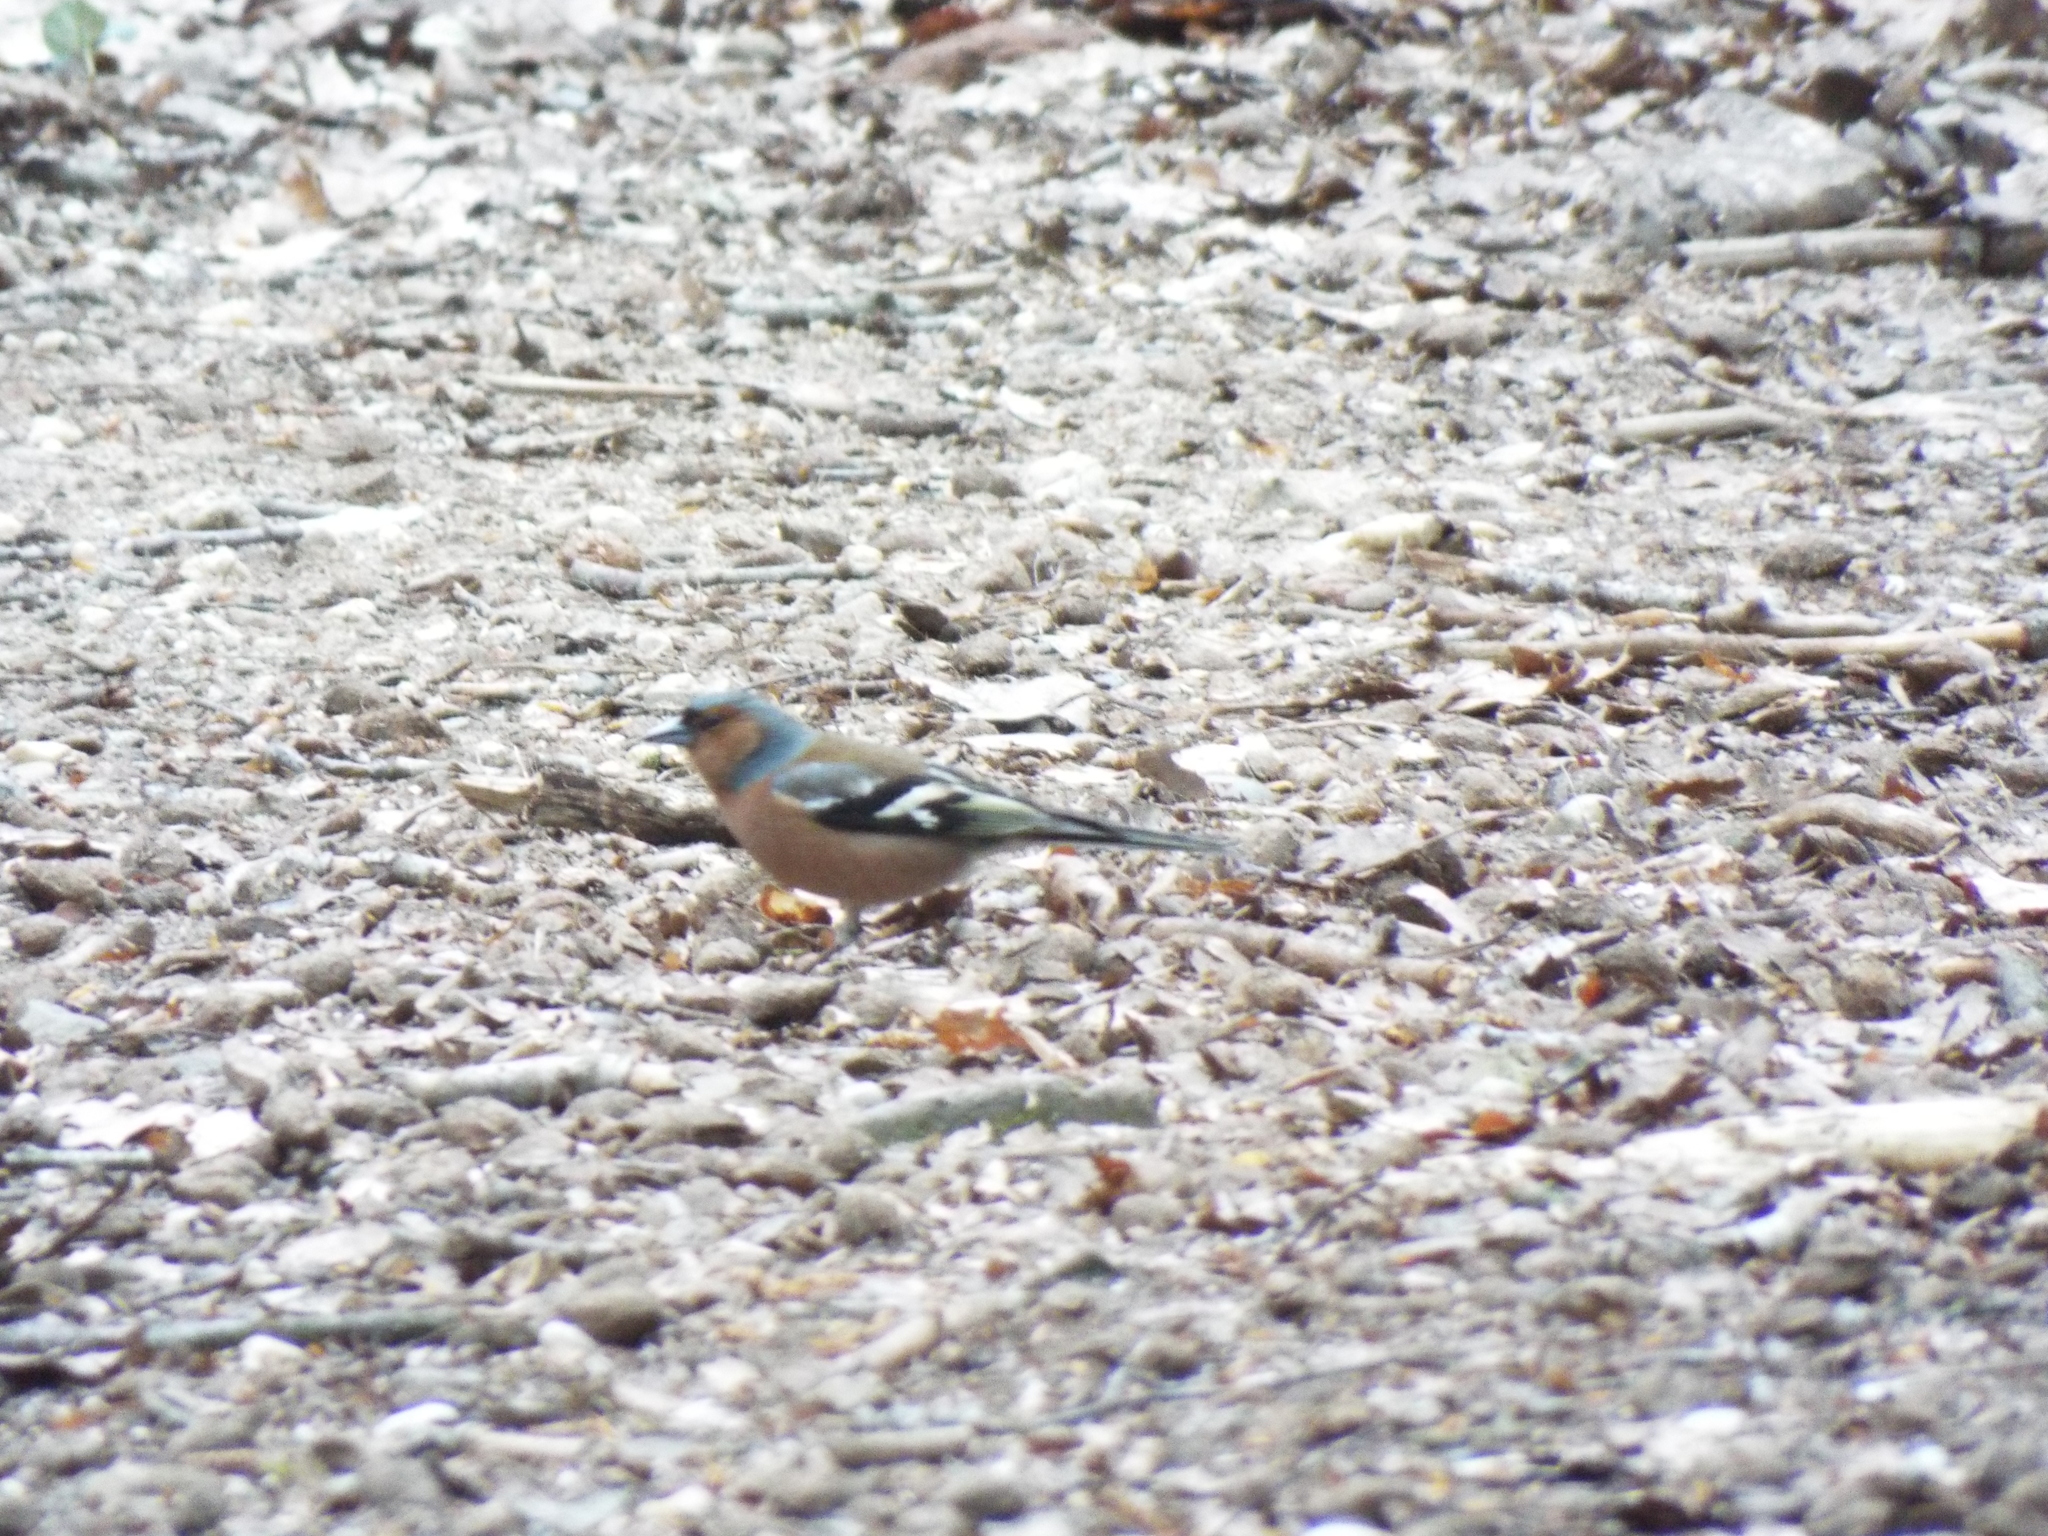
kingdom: Animalia
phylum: Chordata
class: Aves
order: Passeriformes
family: Fringillidae
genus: Fringilla
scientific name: Fringilla coelebs
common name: Common chaffinch
